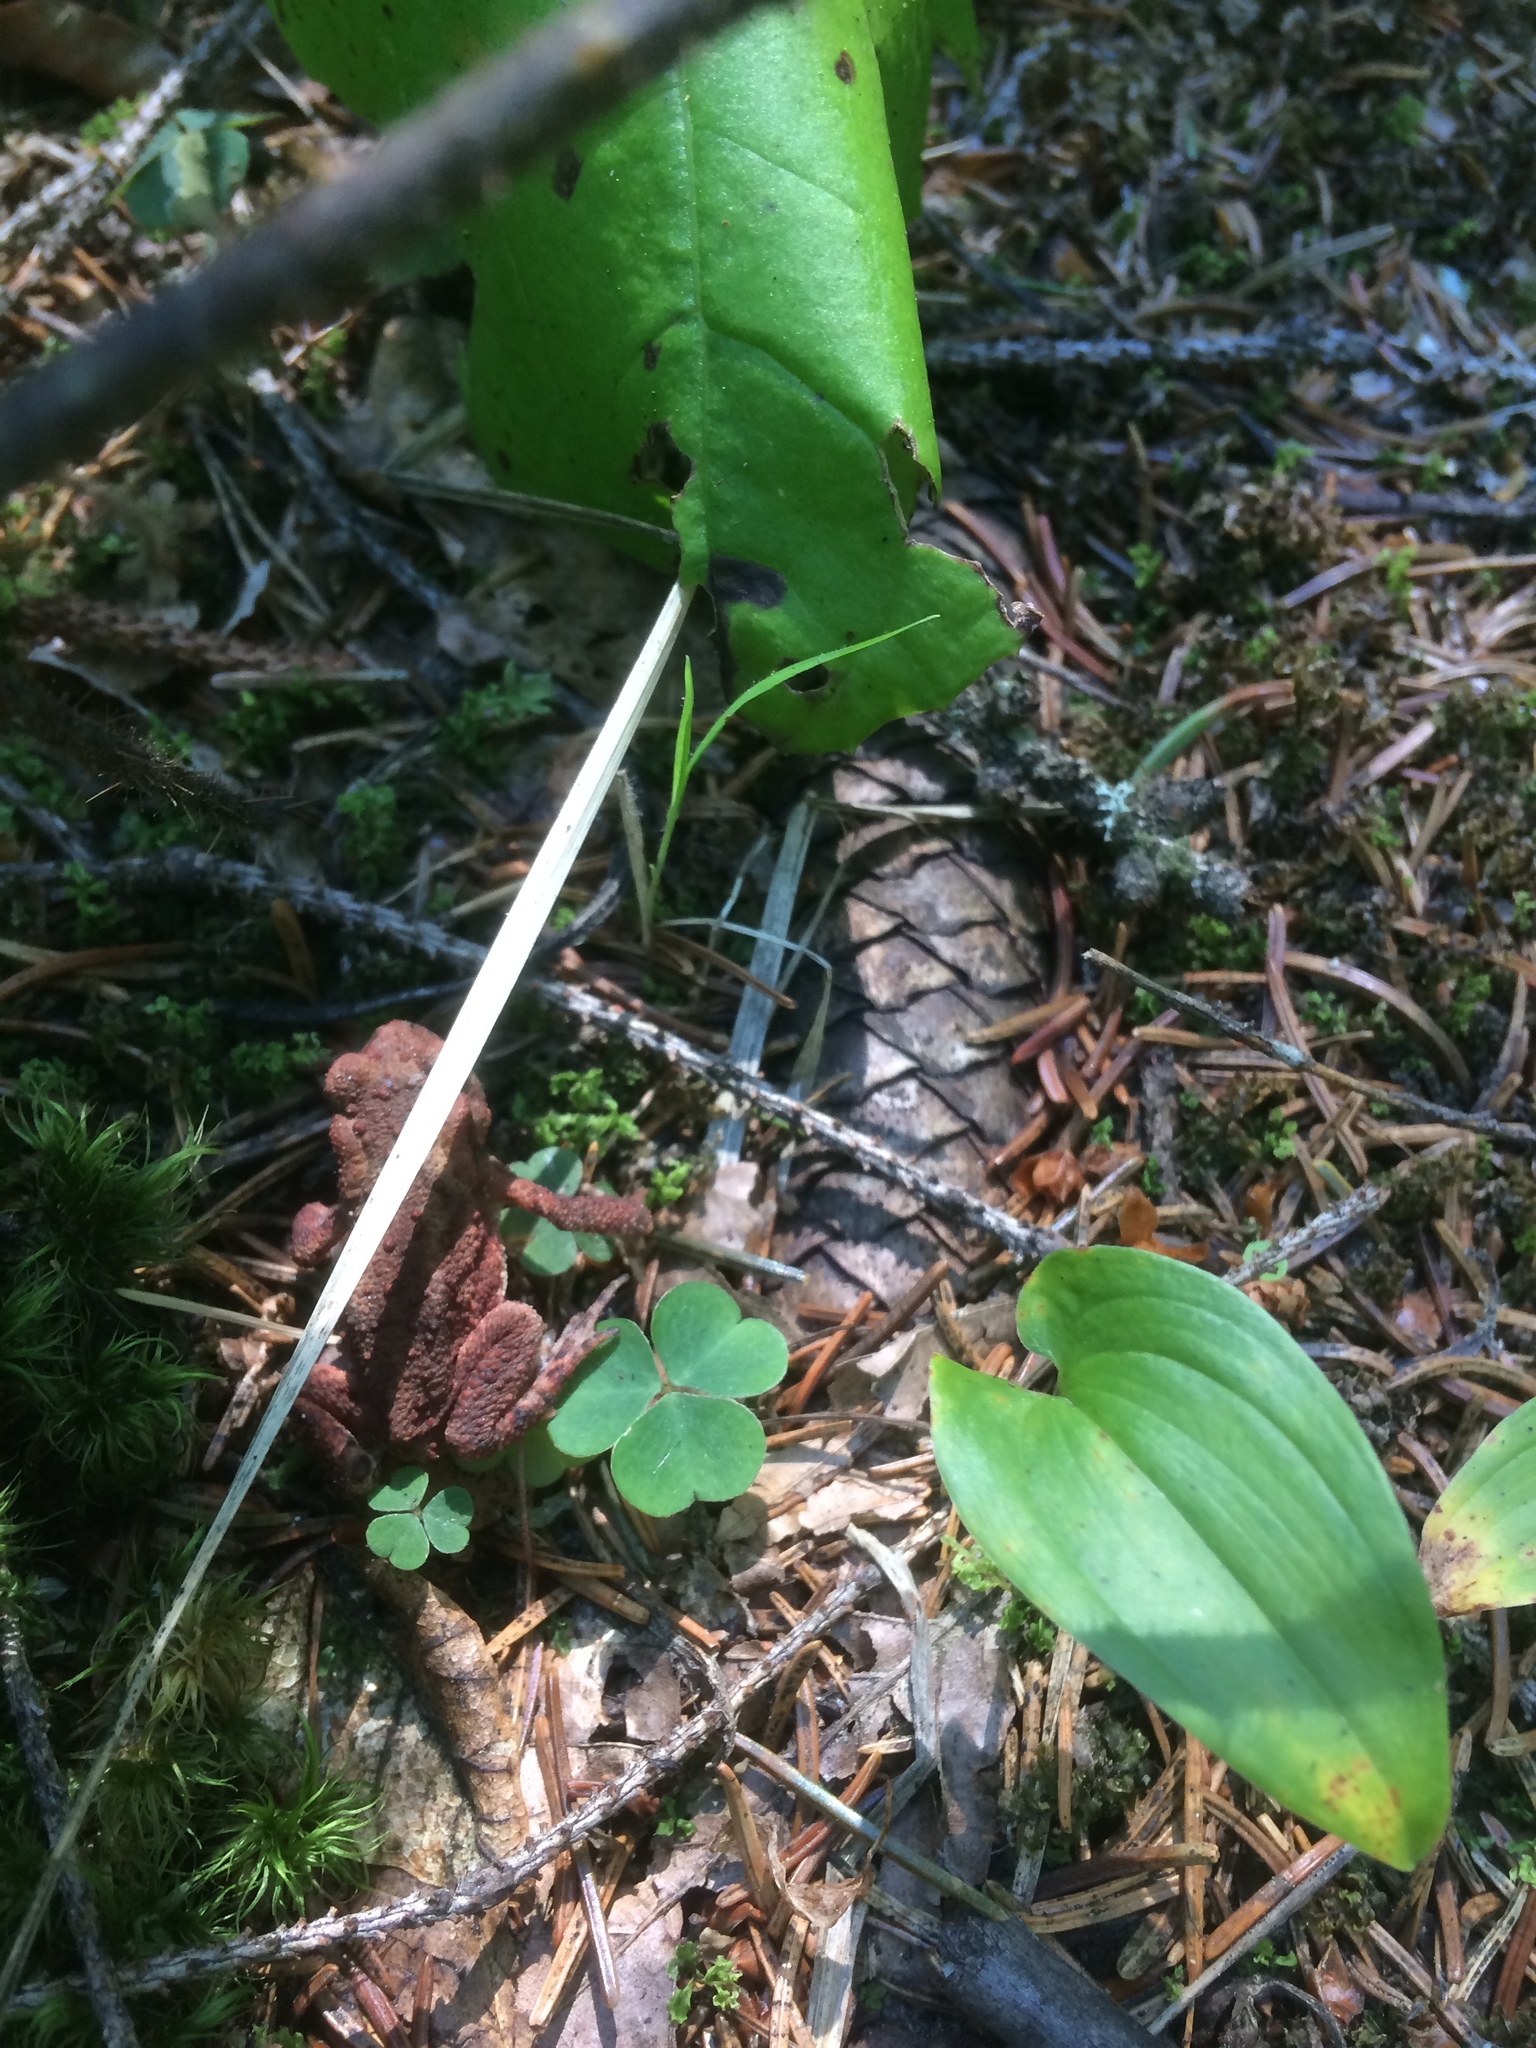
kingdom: Animalia
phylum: Chordata
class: Amphibia
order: Anura
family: Bufonidae
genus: Bufo
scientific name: Bufo bufo
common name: Common toad
